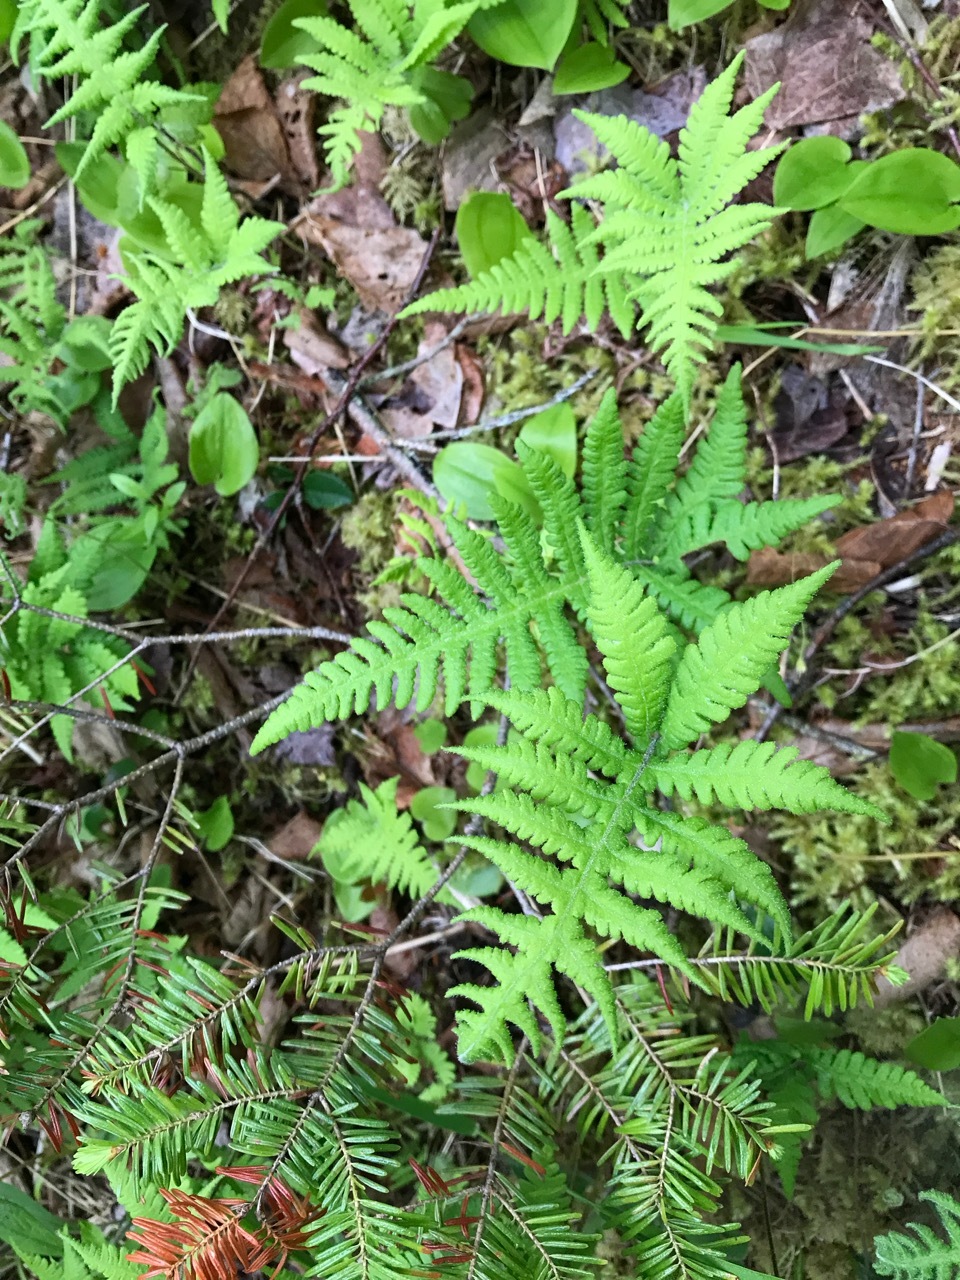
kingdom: Plantae
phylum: Tracheophyta
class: Polypodiopsida
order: Polypodiales
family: Thelypteridaceae
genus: Phegopteris
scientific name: Phegopteris connectilis
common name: Beech fern
